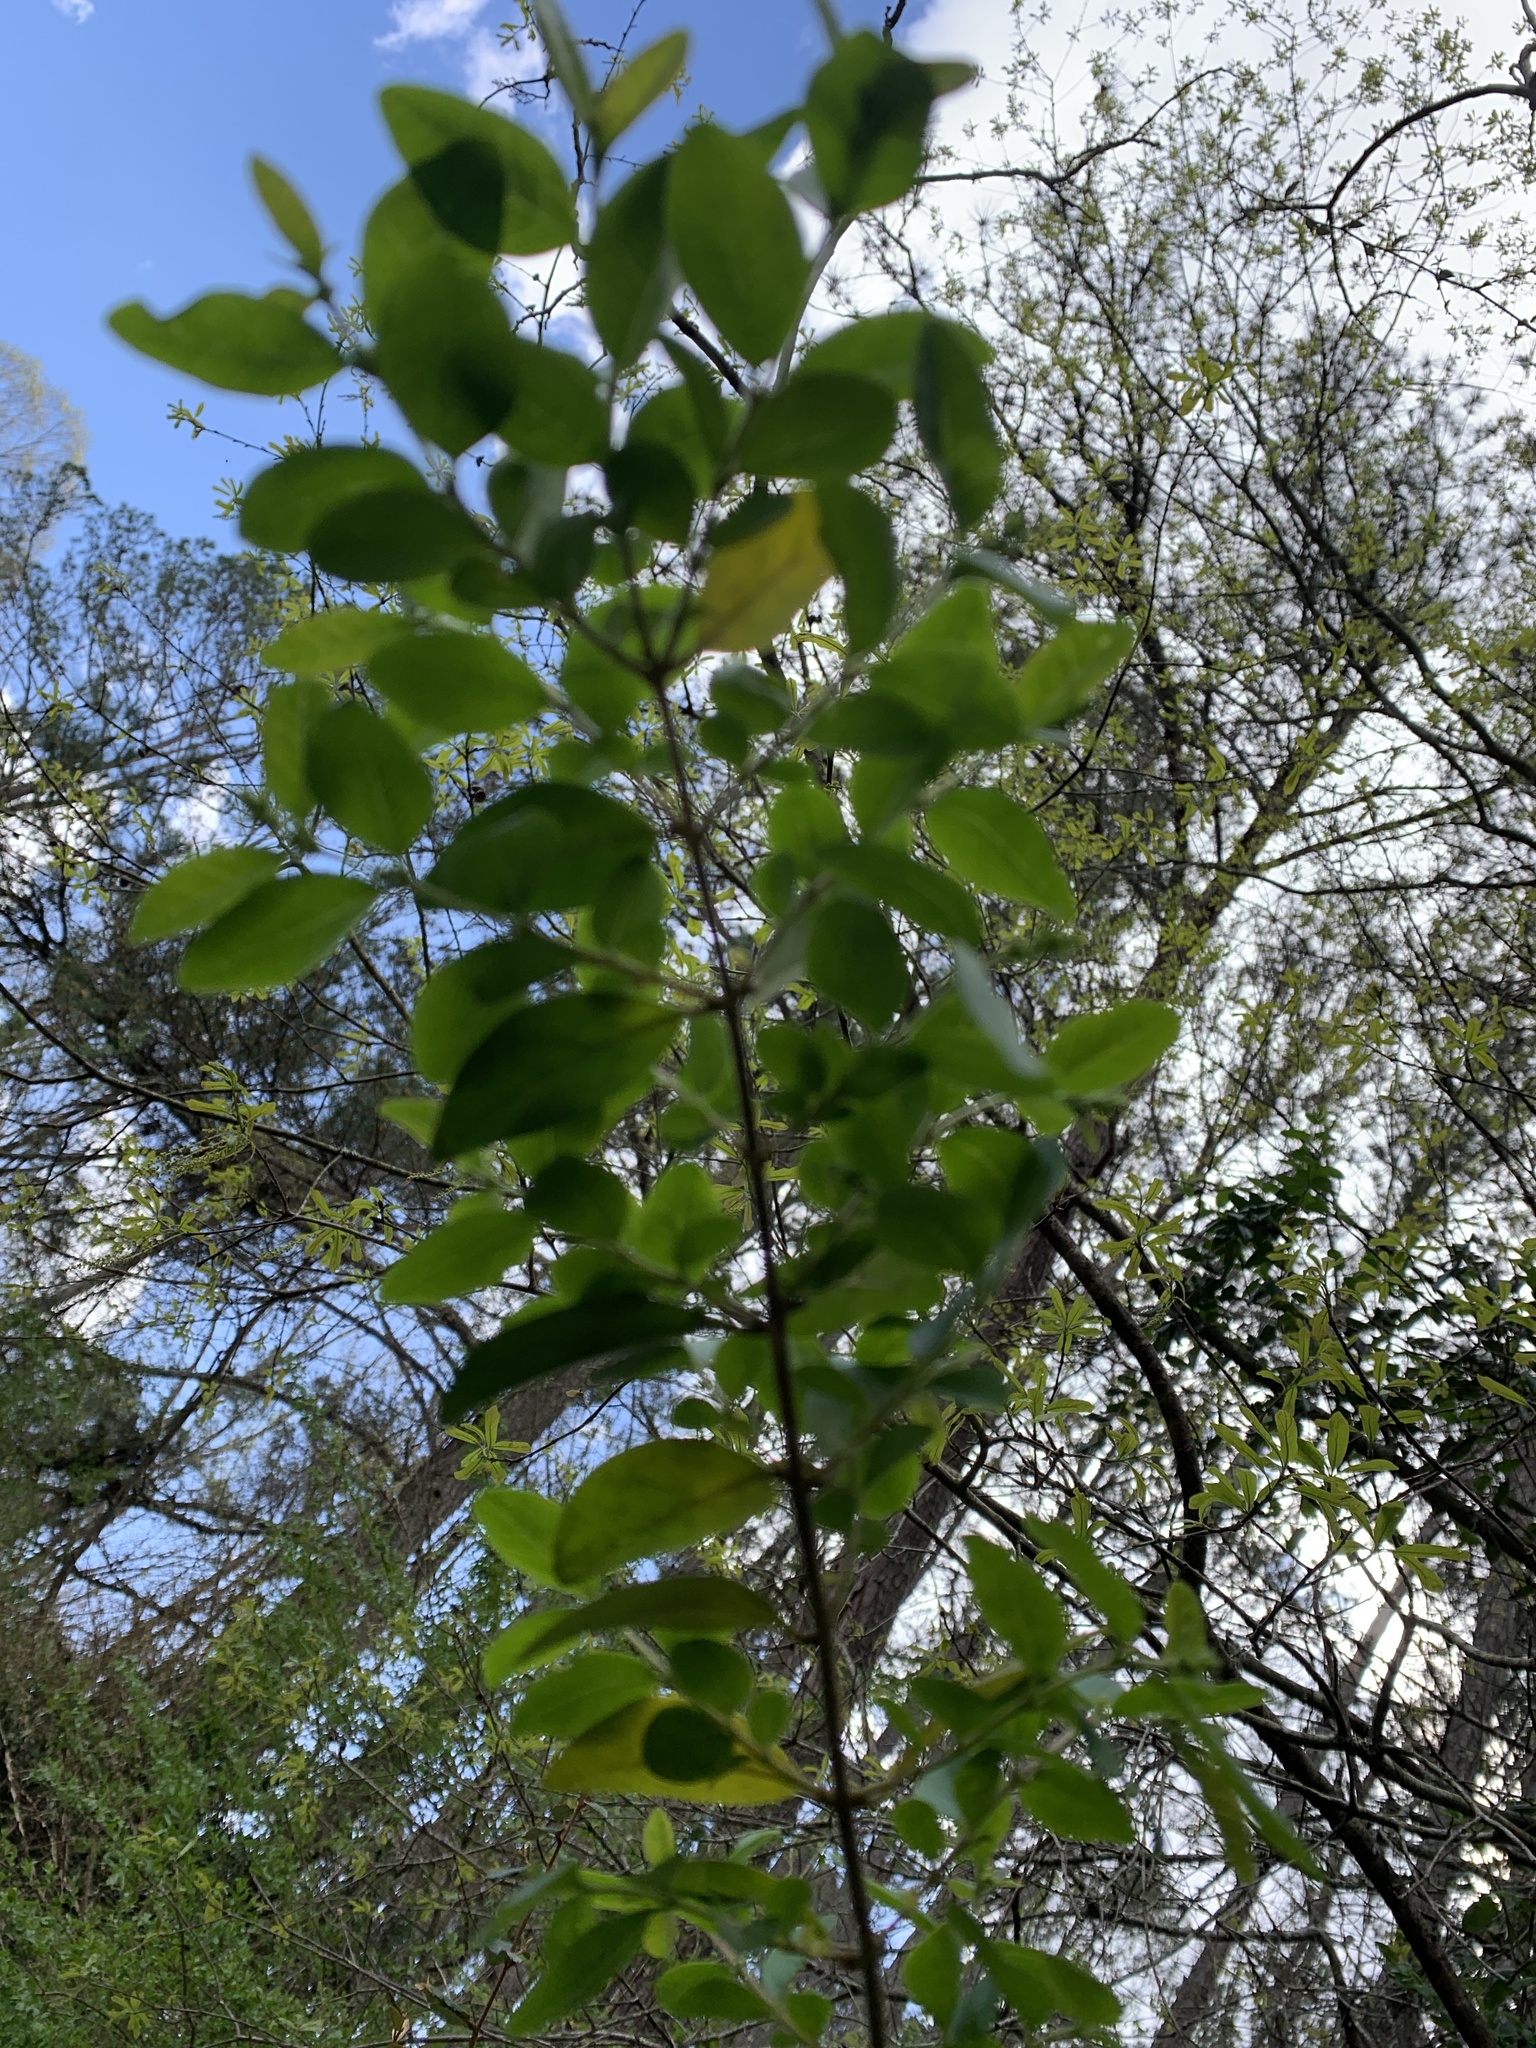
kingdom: Plantae
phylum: Tracheophyta
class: Magnoliopsida
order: Lamiales
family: Oleaceae
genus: Ligustrum
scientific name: Ligustrum sinense
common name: Chinese privet
